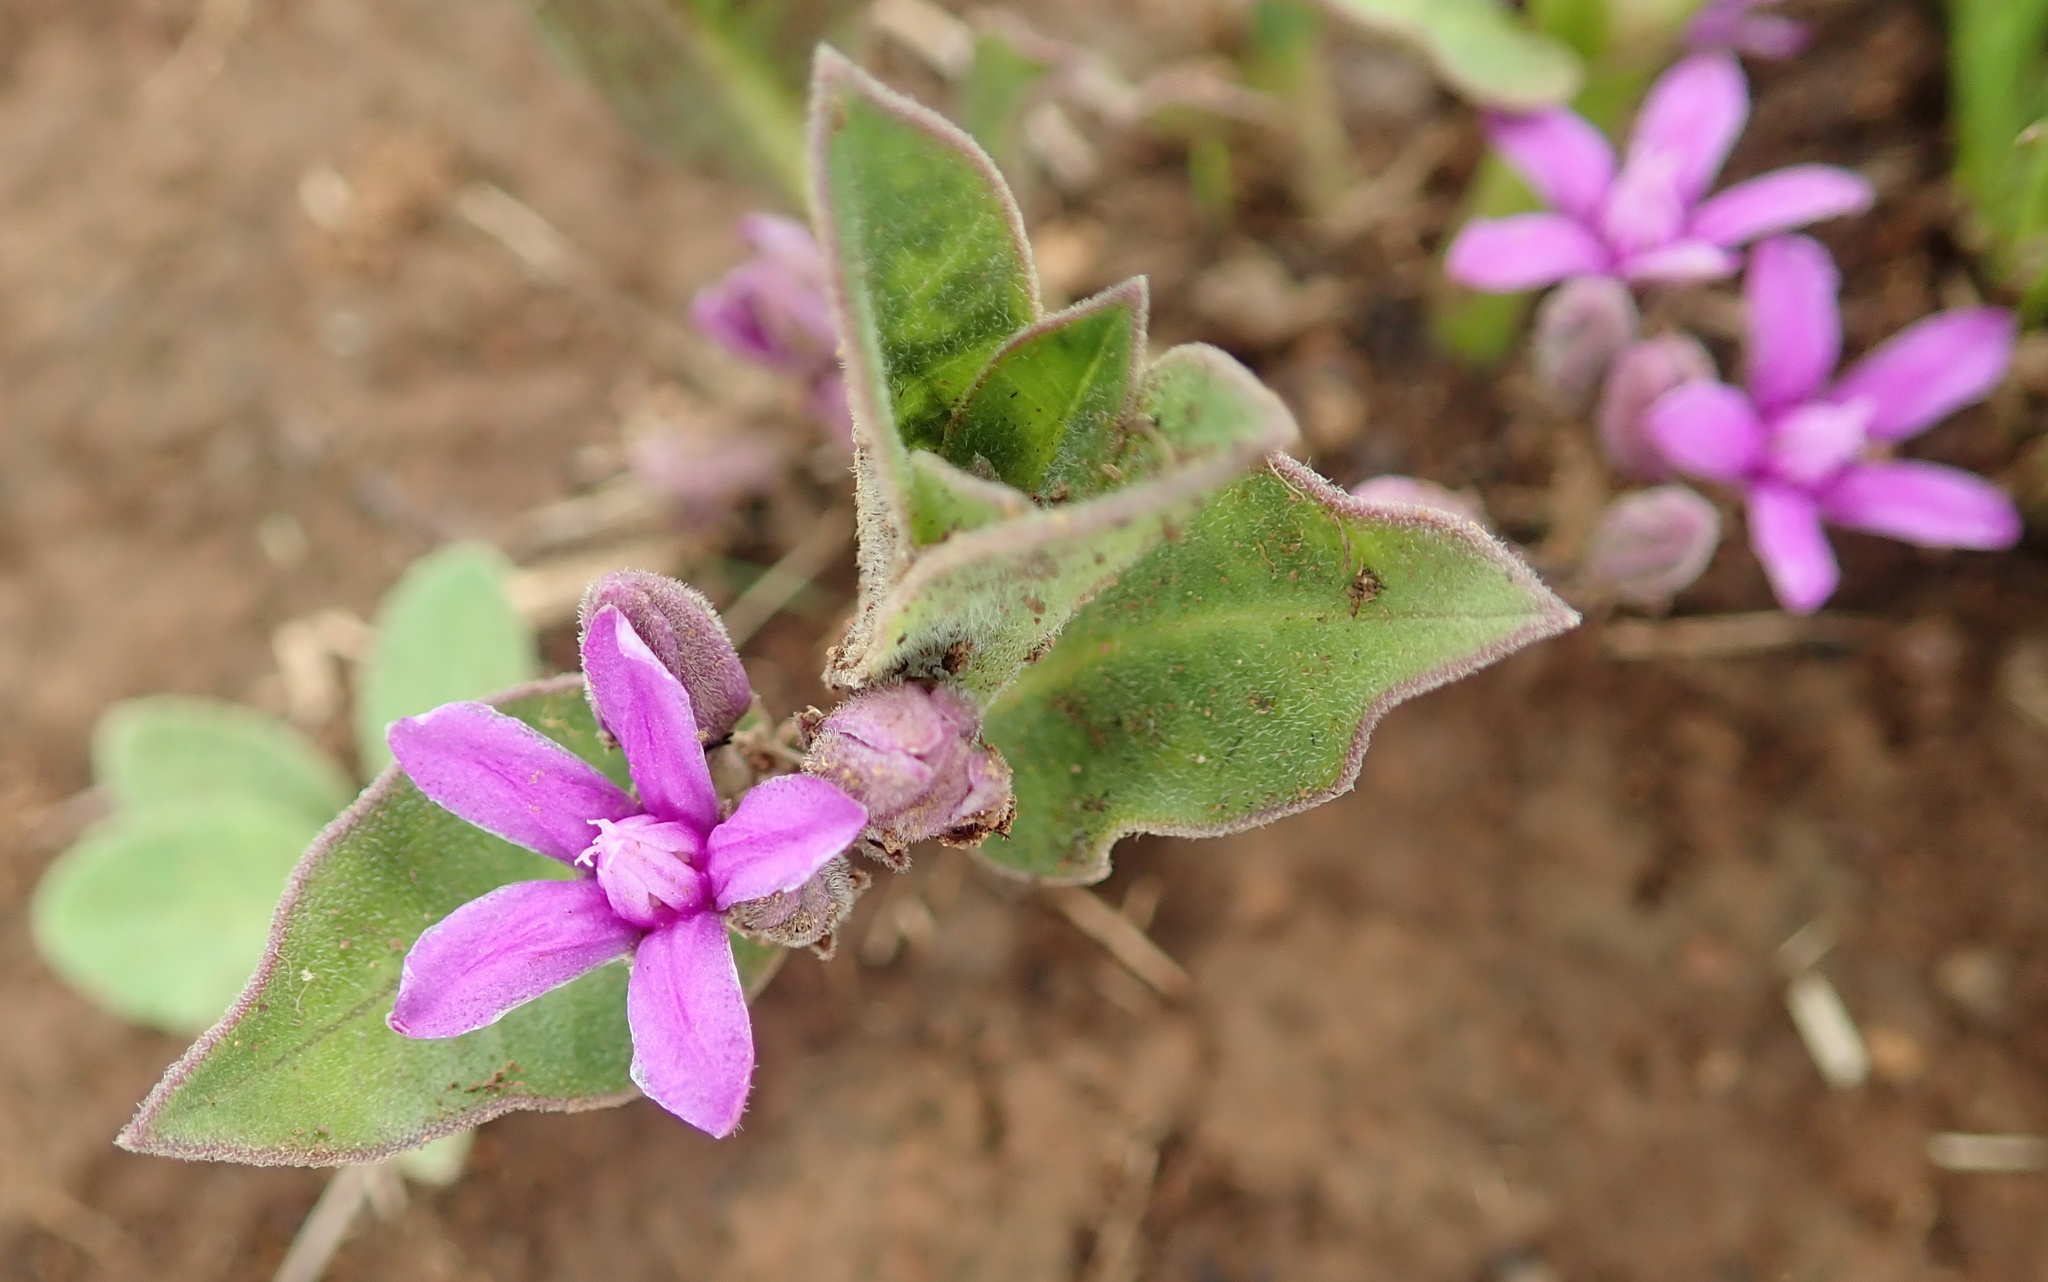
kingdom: Plantae
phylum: Tracheophyta
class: Magnoliopsida
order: Gentianales
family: Apocynaceae
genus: Raphionacme
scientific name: Raphionacme hirsuta
